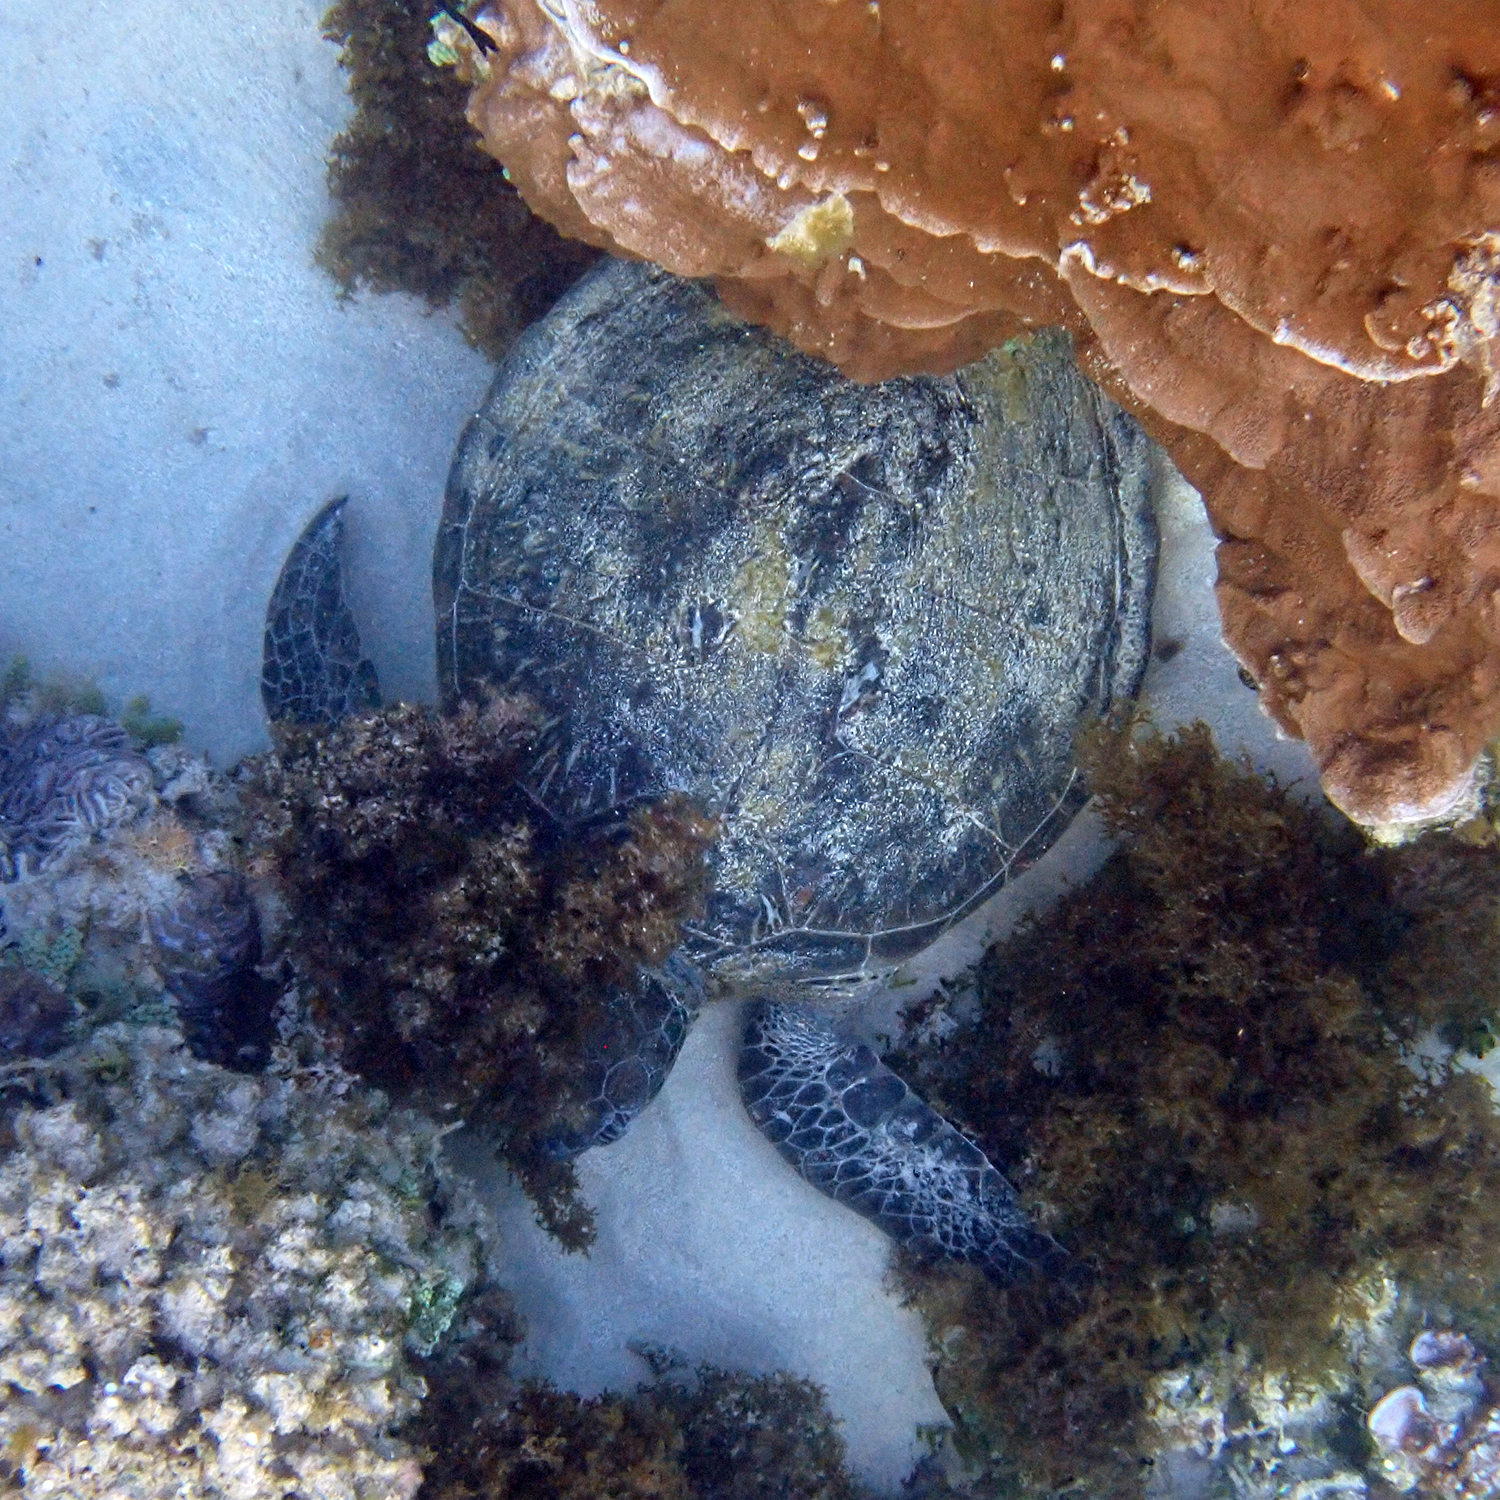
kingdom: Animalia
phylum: Chordata
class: Testudines
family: Cheloniidae
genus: Chelonia
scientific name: Chelonia mydas
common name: Green turtle
